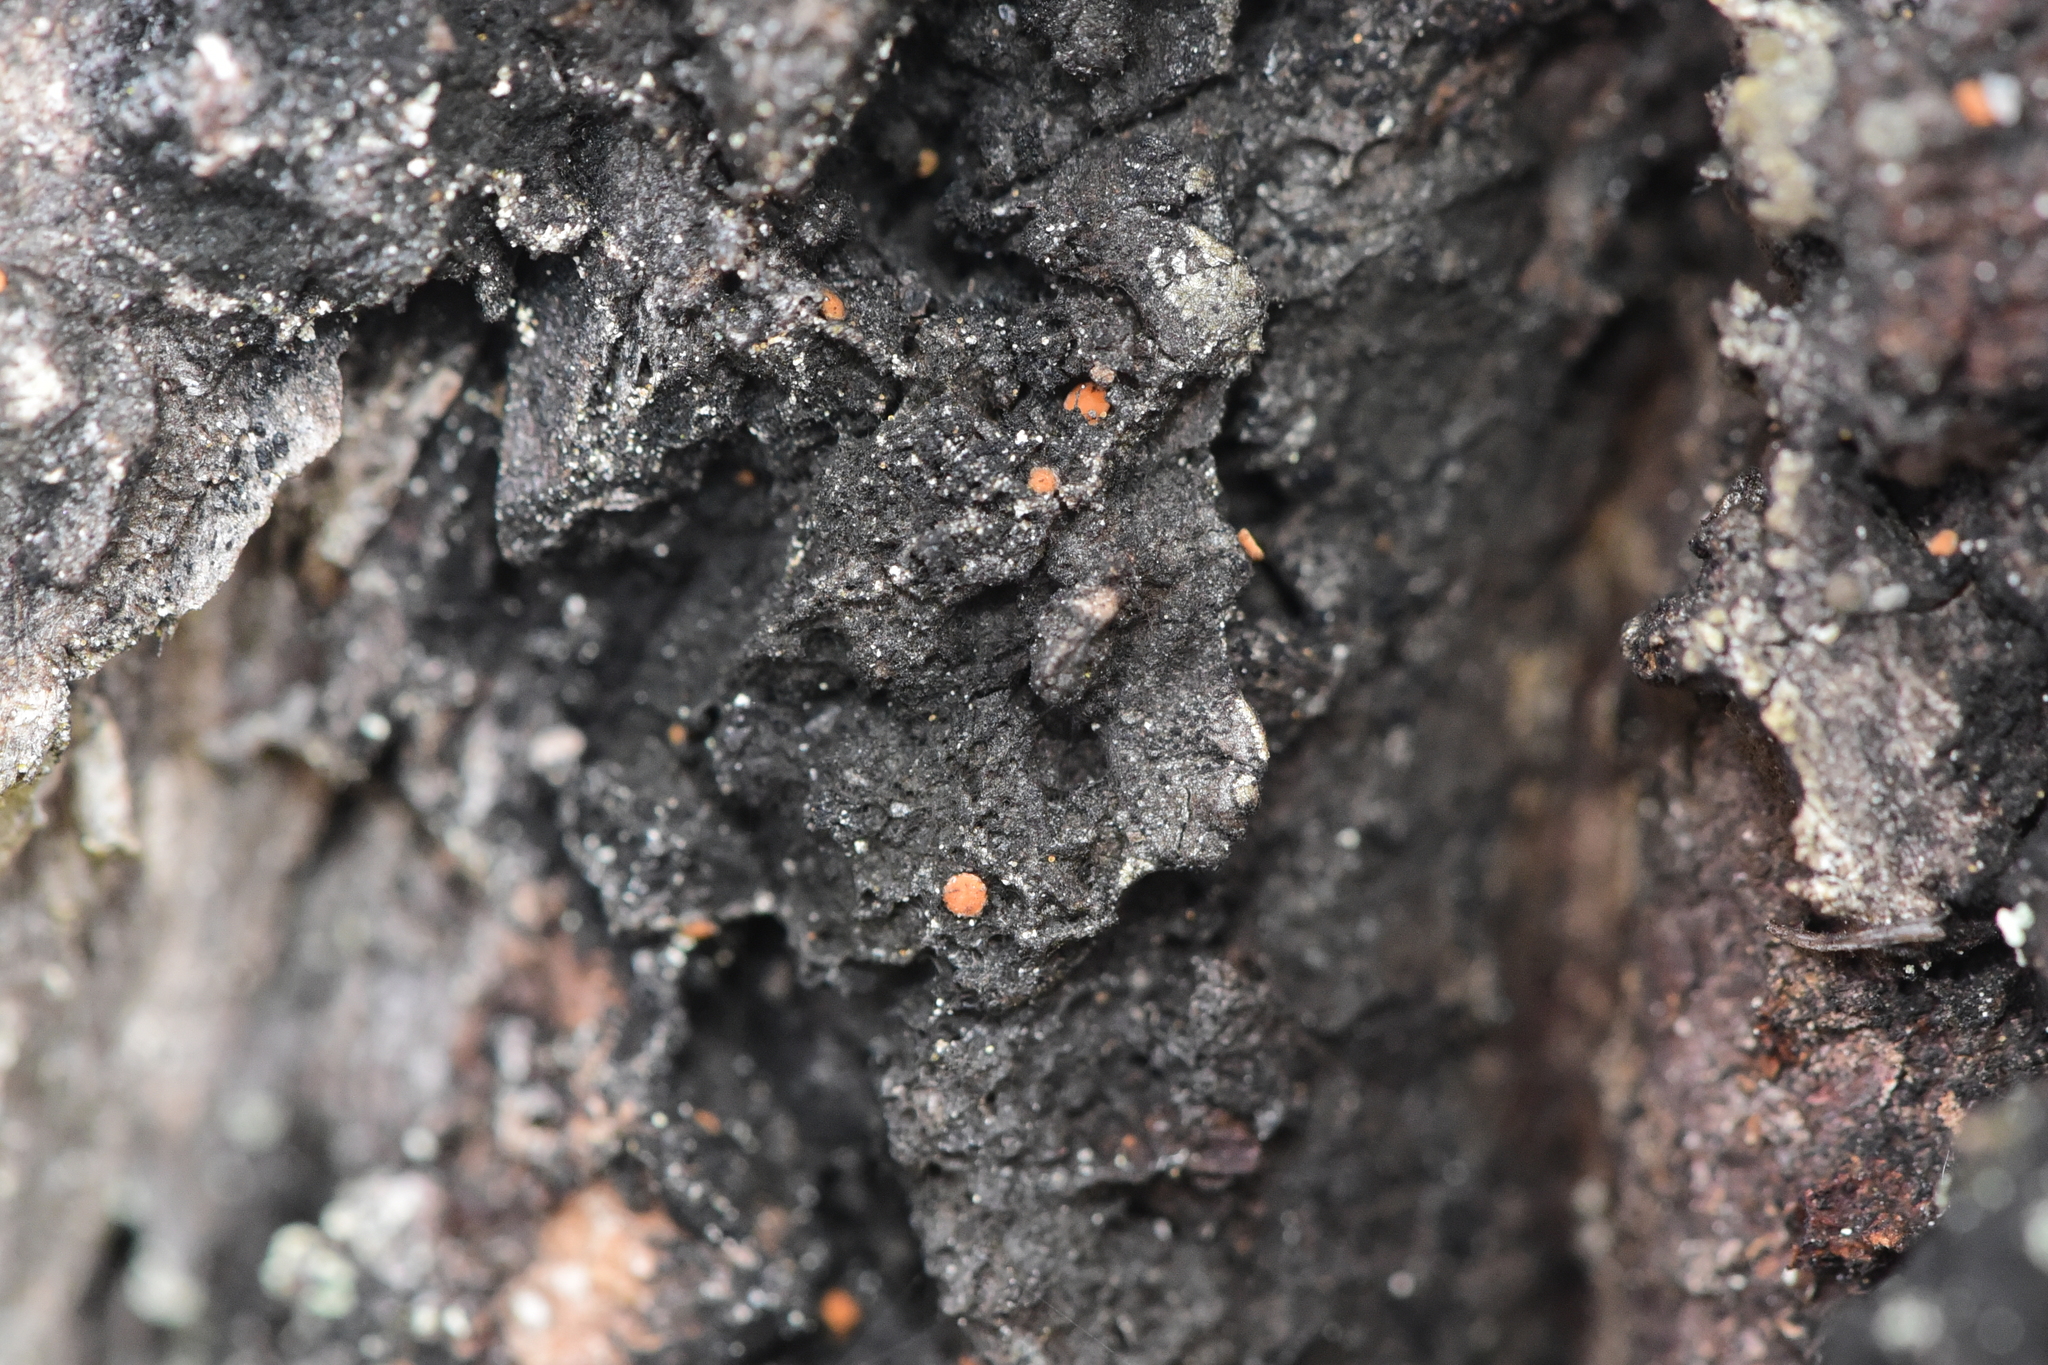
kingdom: Fungi
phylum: Ascomycota
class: Sareomycetes
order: Sareales
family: Sareaceae
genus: Sarea
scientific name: Sarea resinae
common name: Sarea lichen
